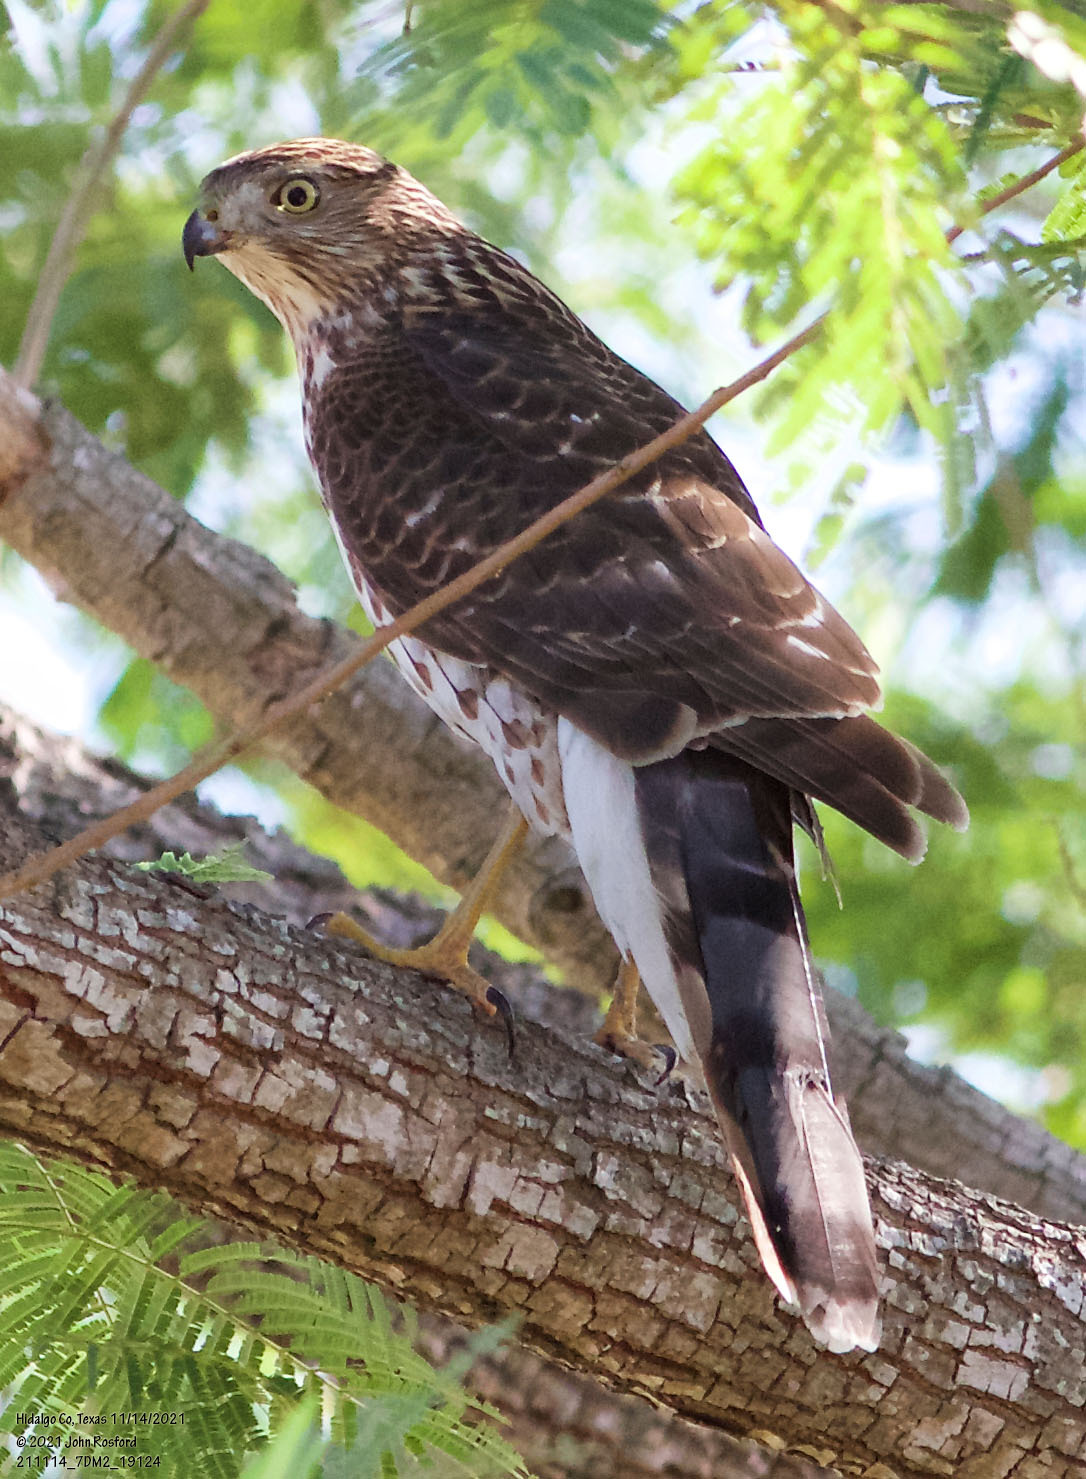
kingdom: Animalia
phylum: Chordata
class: Aves
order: Accipitriformes
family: Accipitridae
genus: Accipiter
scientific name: Accipiter cooperii
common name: Cooper's hawk
